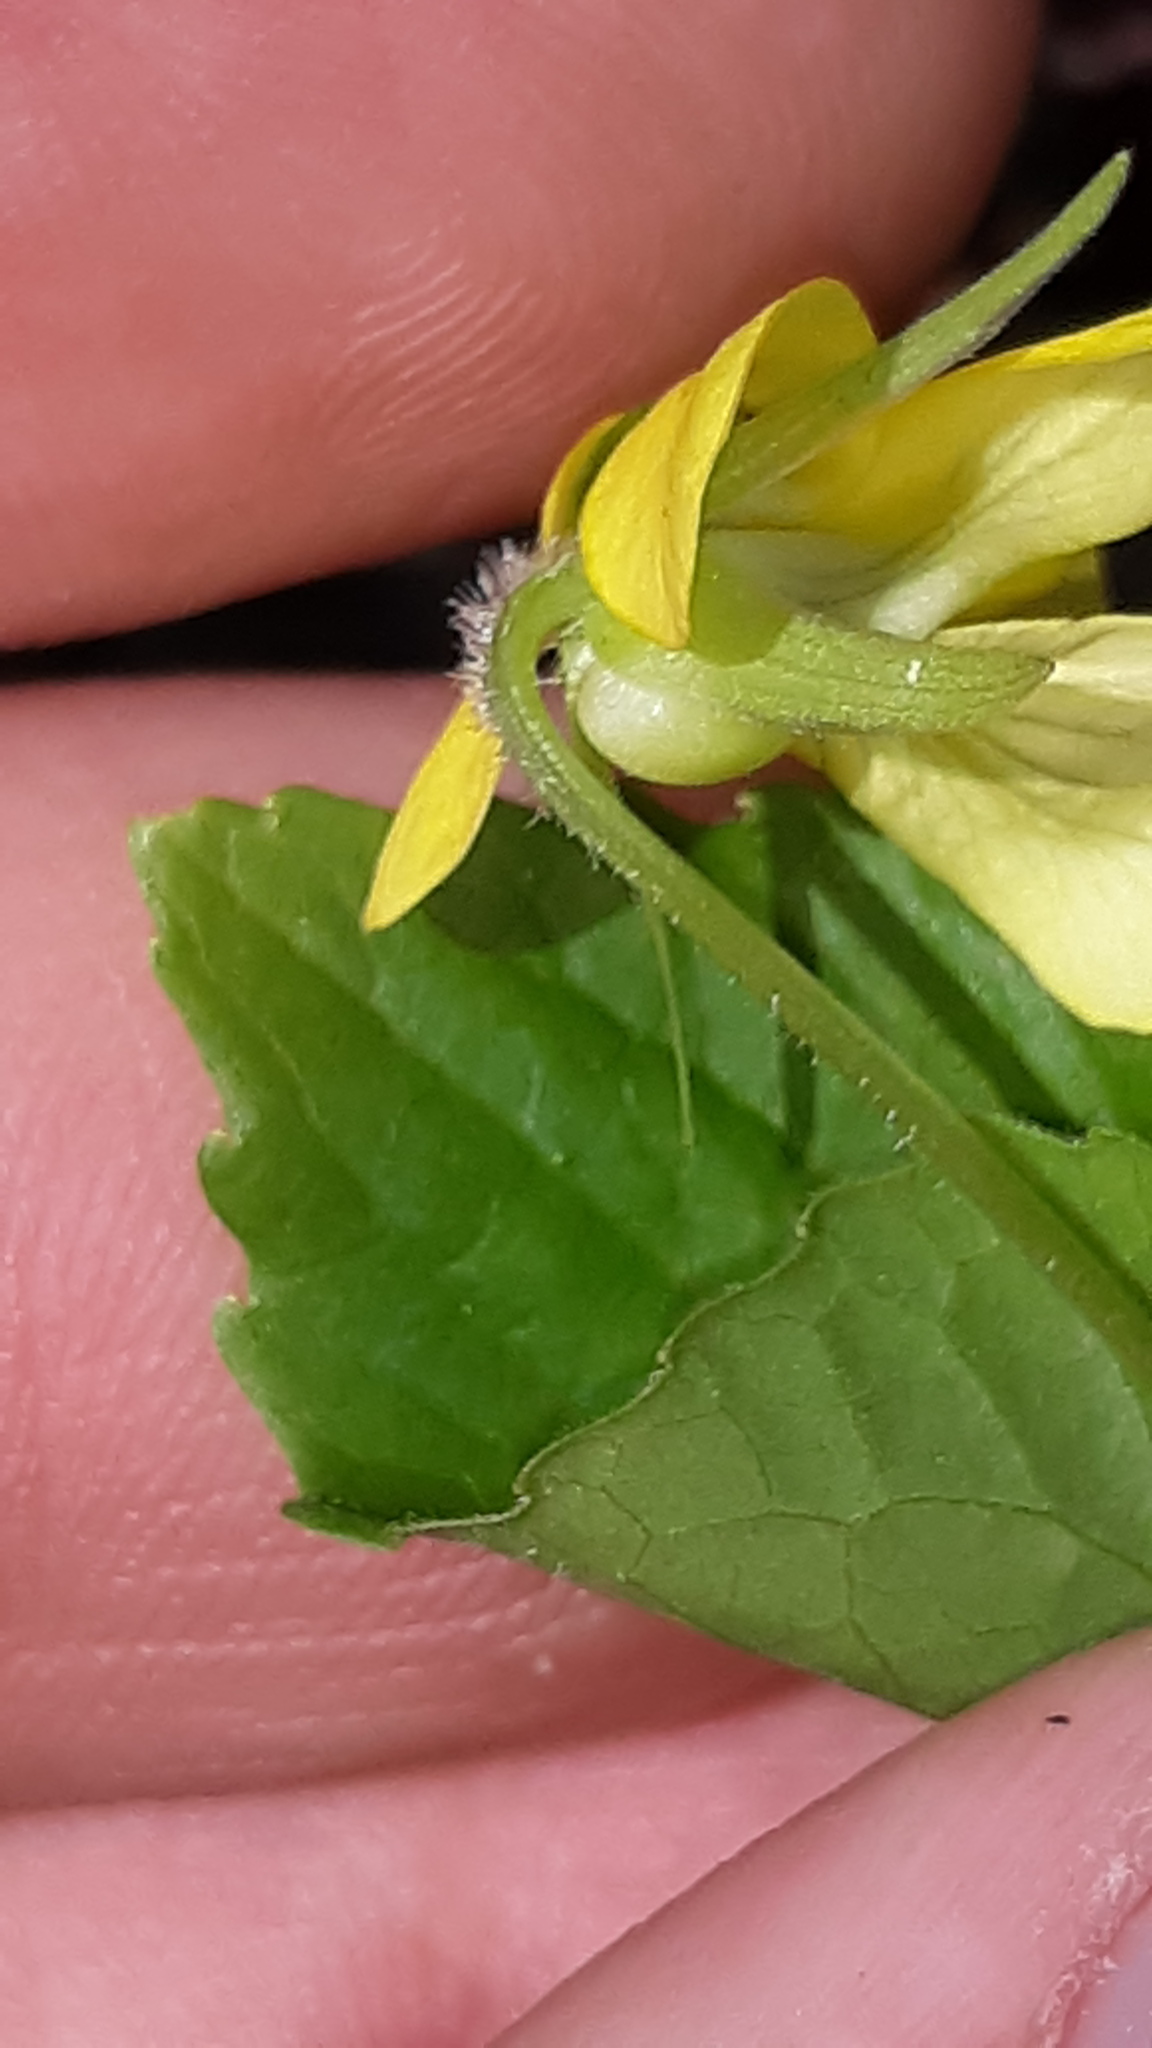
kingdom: Plantae
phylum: Tracheophyta
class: Magnoliopsida
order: Malpighiales
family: Violaceae
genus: Viola
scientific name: Viola eriocarpa
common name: Smooth yellow violet
